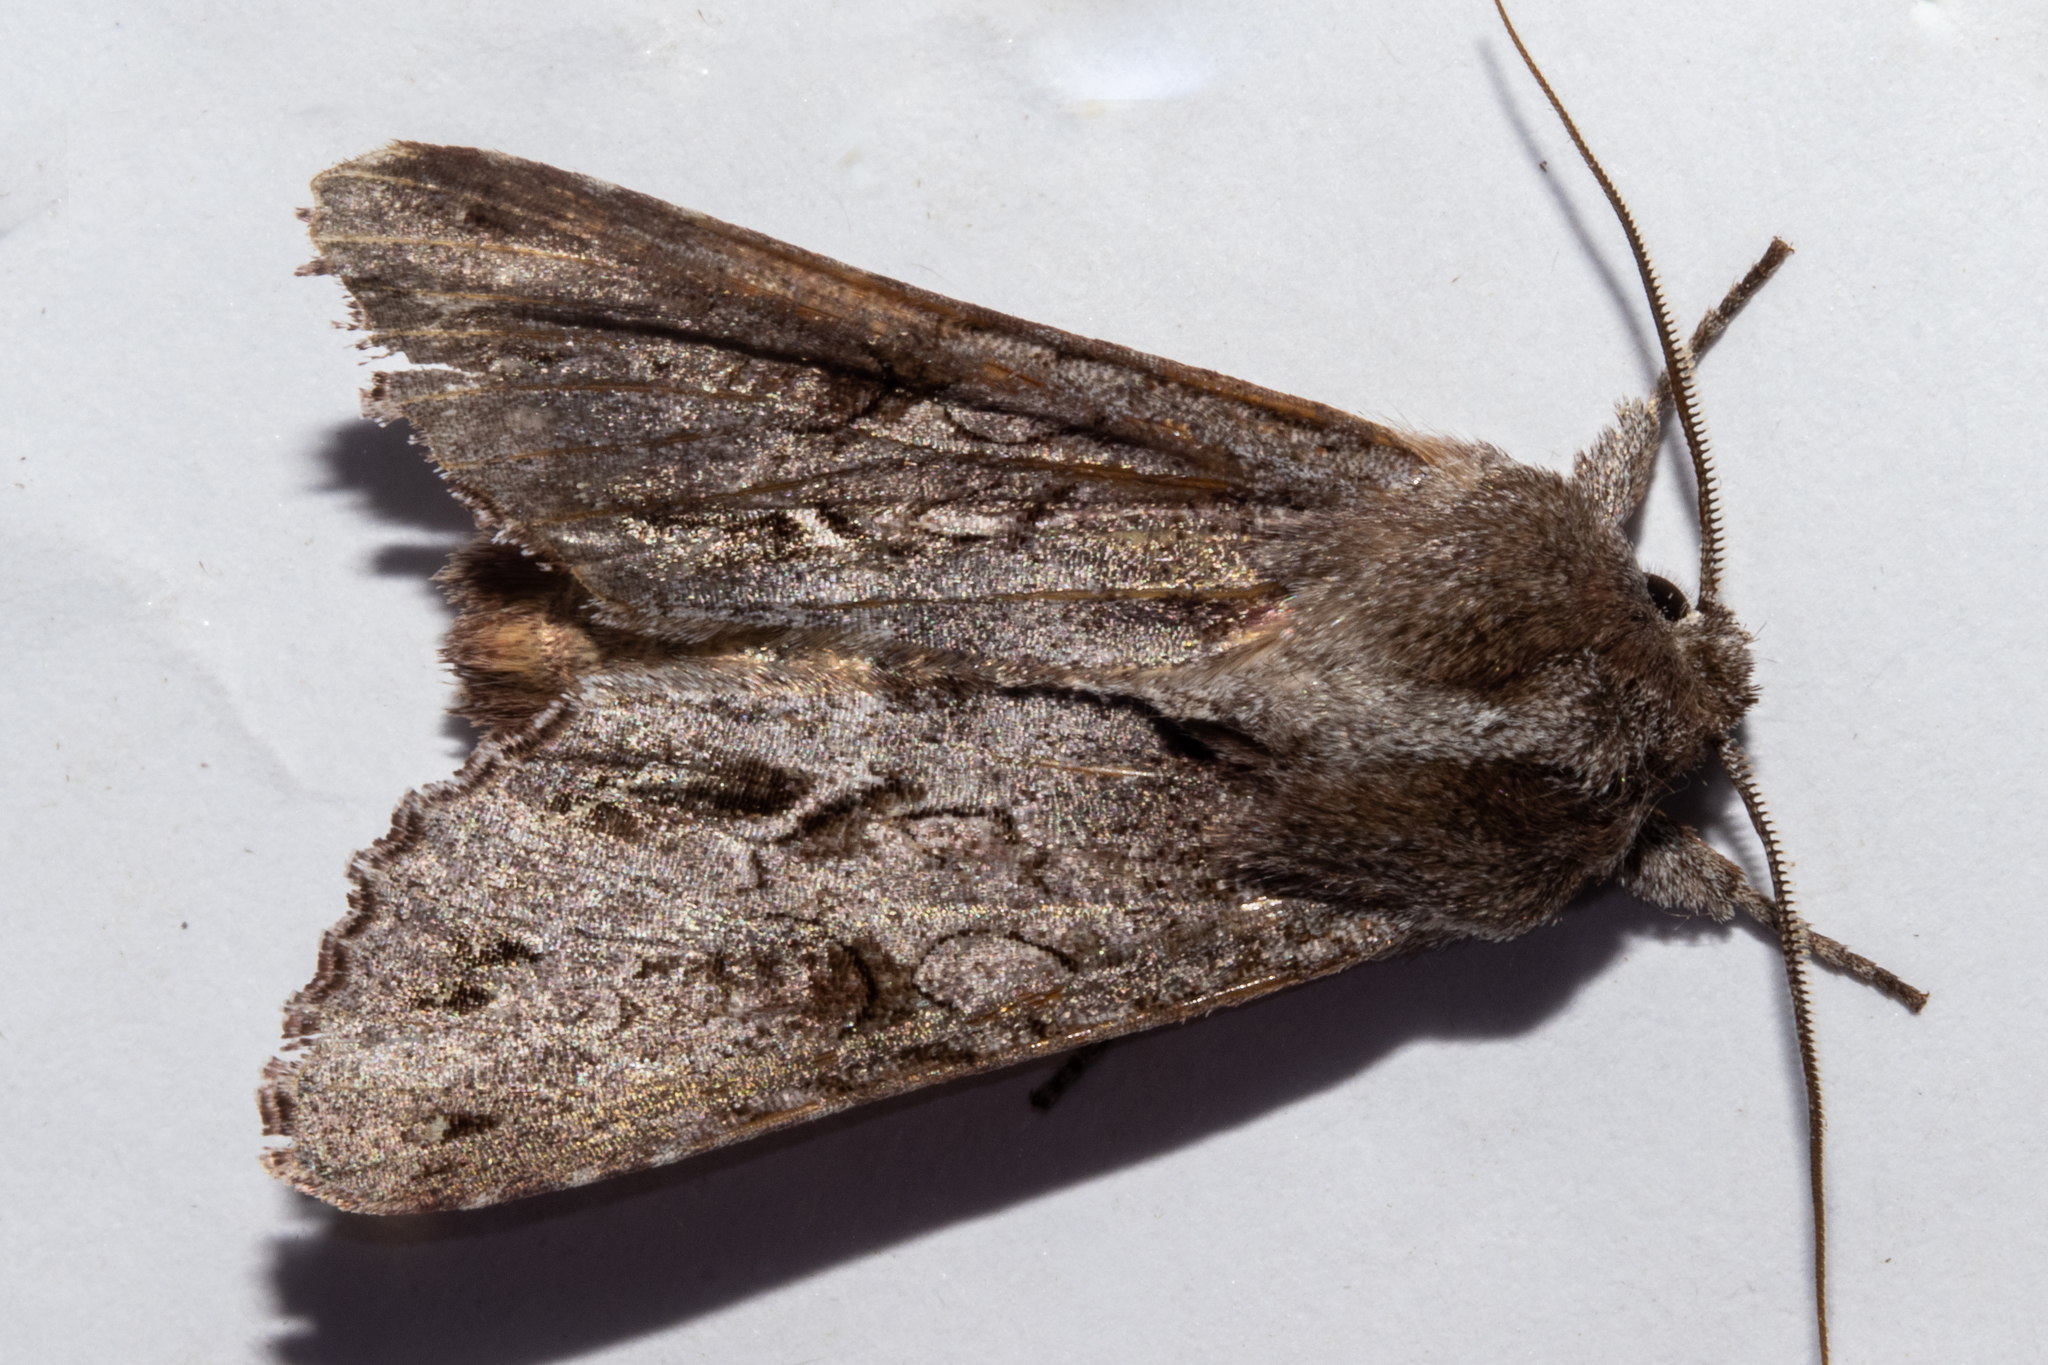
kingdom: Animalia
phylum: Arthropoda
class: Insecta
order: Lepidoptera
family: Noctuidae
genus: Ichneutica
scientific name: Ichneutica
